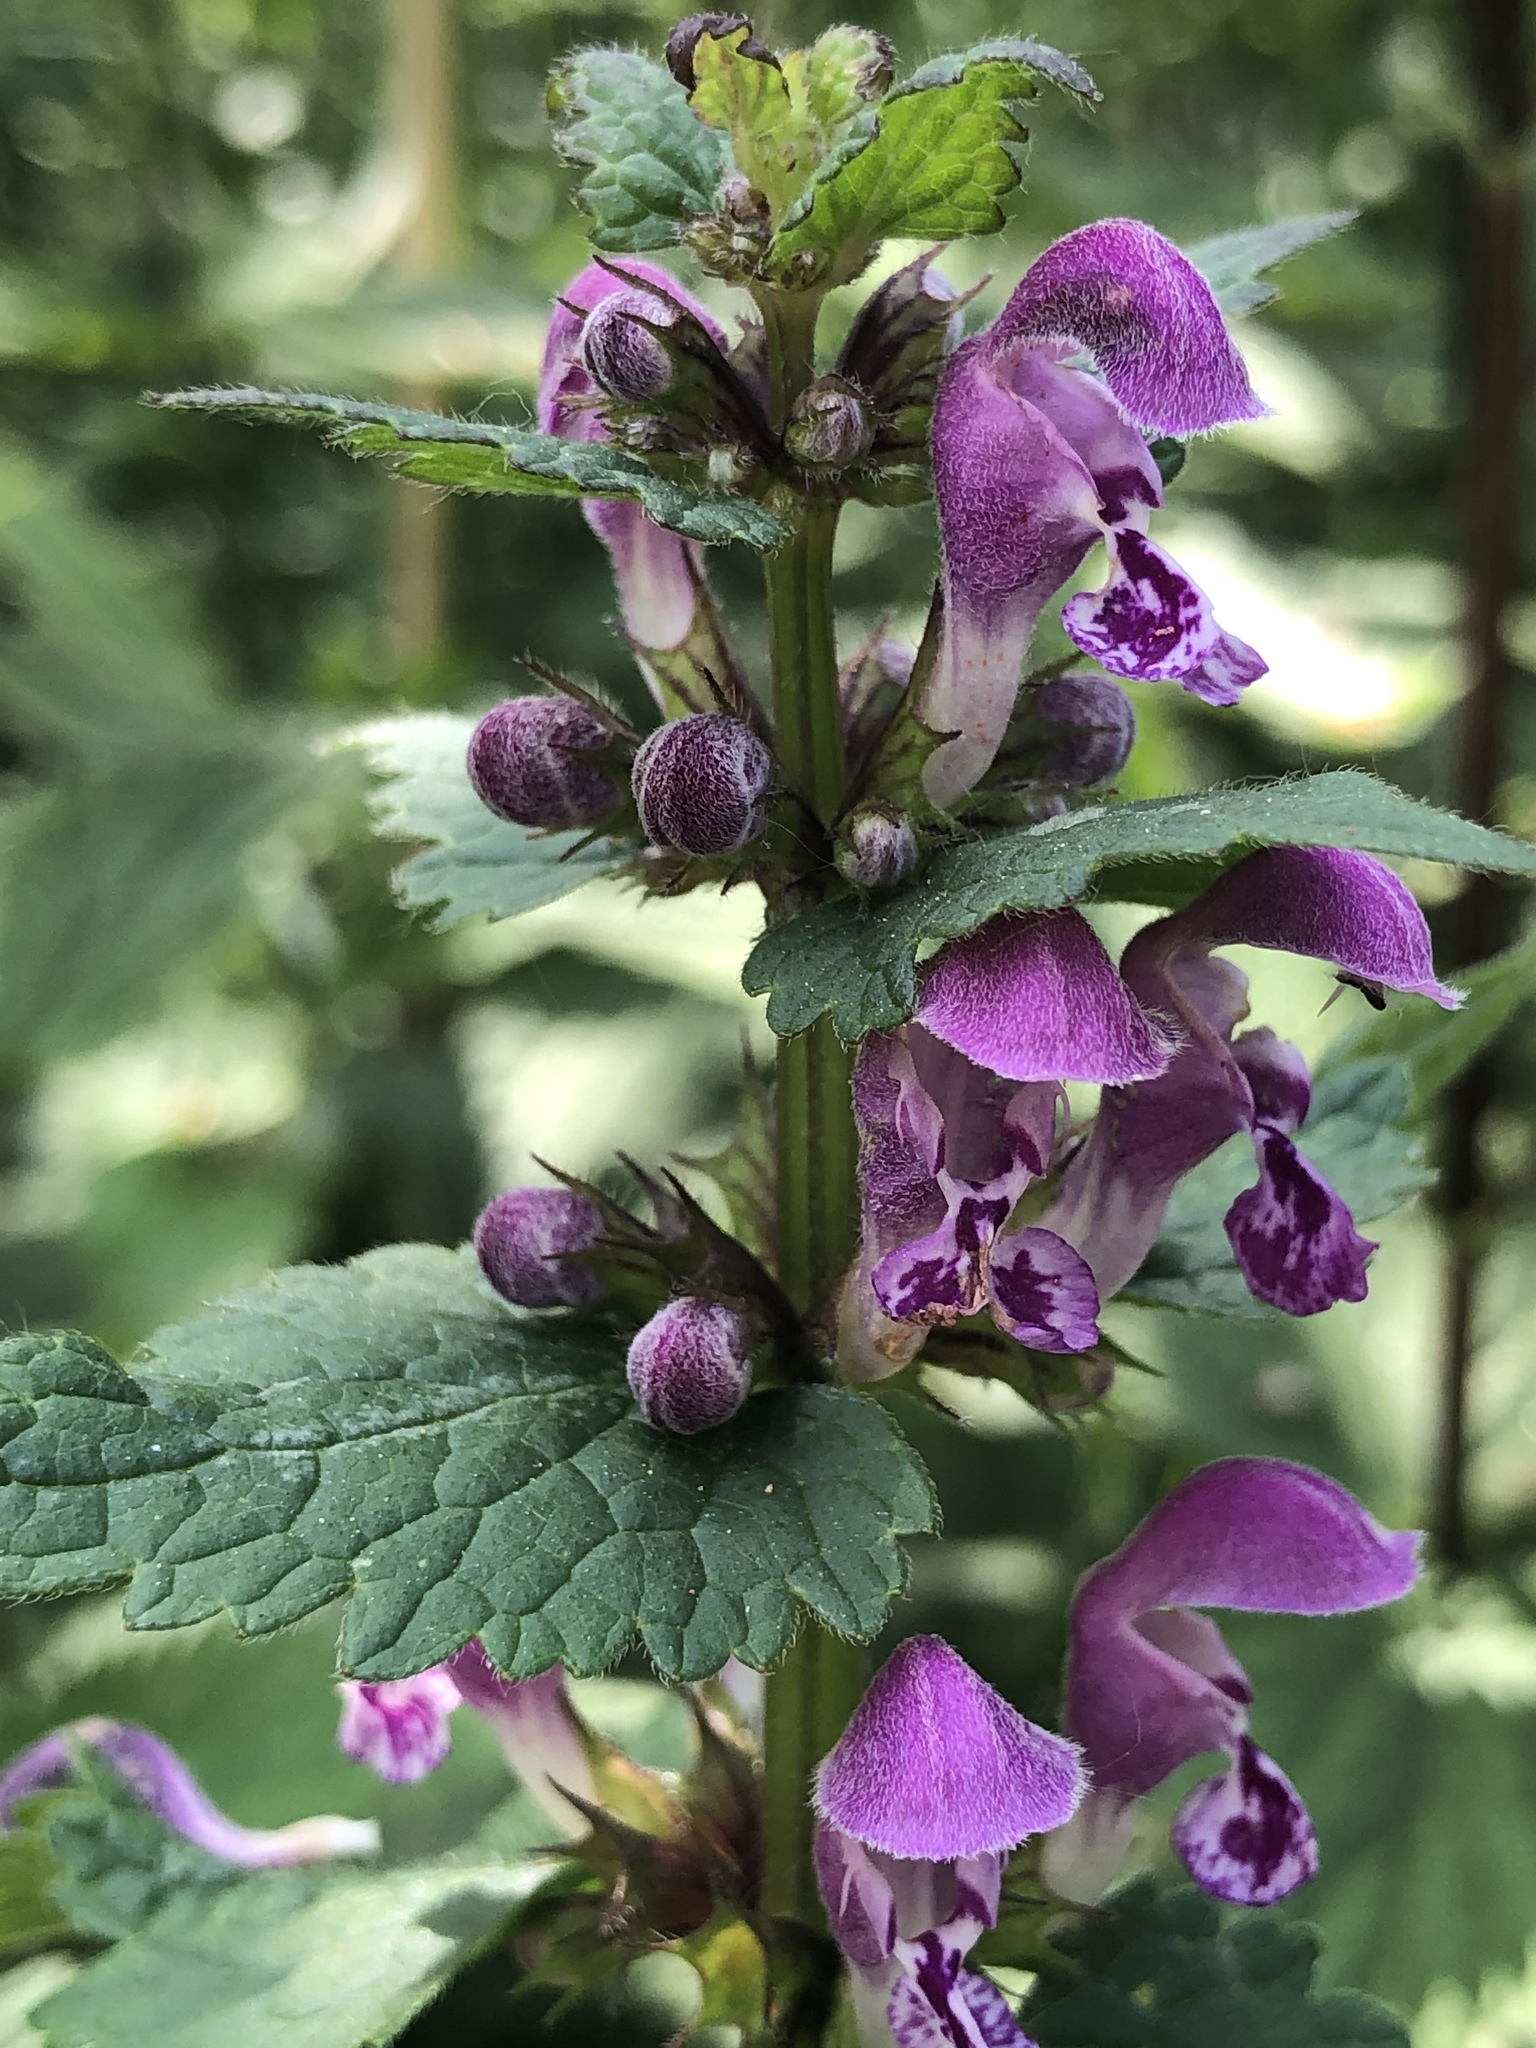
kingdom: Plantae
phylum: Tracheophyta
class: Magnoliopsida
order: Lamiales
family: Lamiaceae
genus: Lamium
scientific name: Lamium maculatum
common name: Spotted dead-nettle
